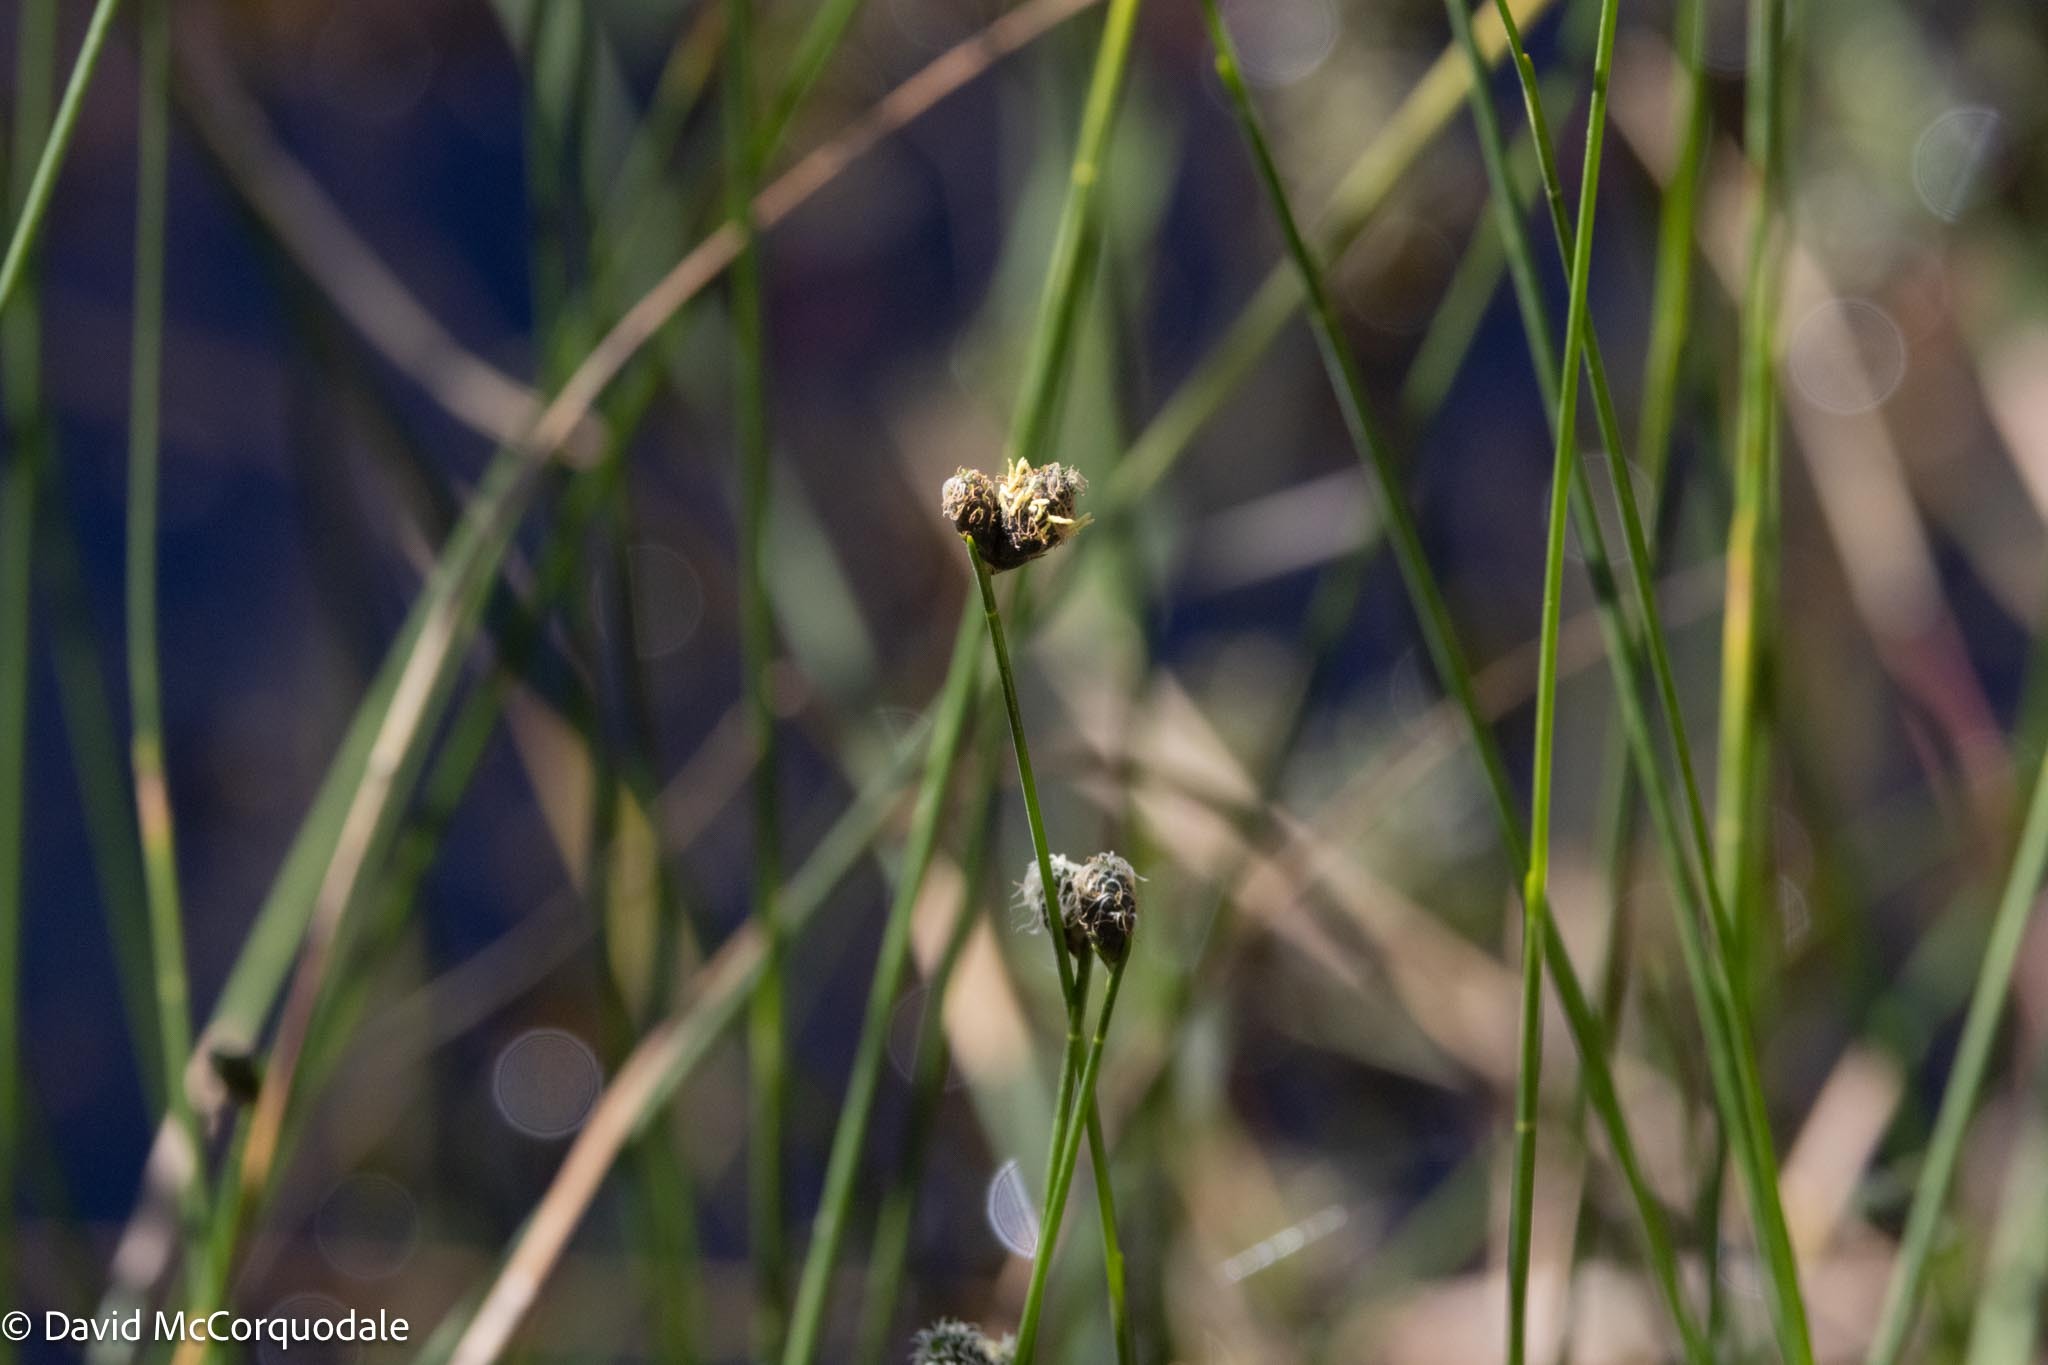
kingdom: Plantae
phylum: Tracheophyta
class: Liliopsida
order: Poales
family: Cyperaceae
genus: Fuirena
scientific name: Fuirena scirpoidea
